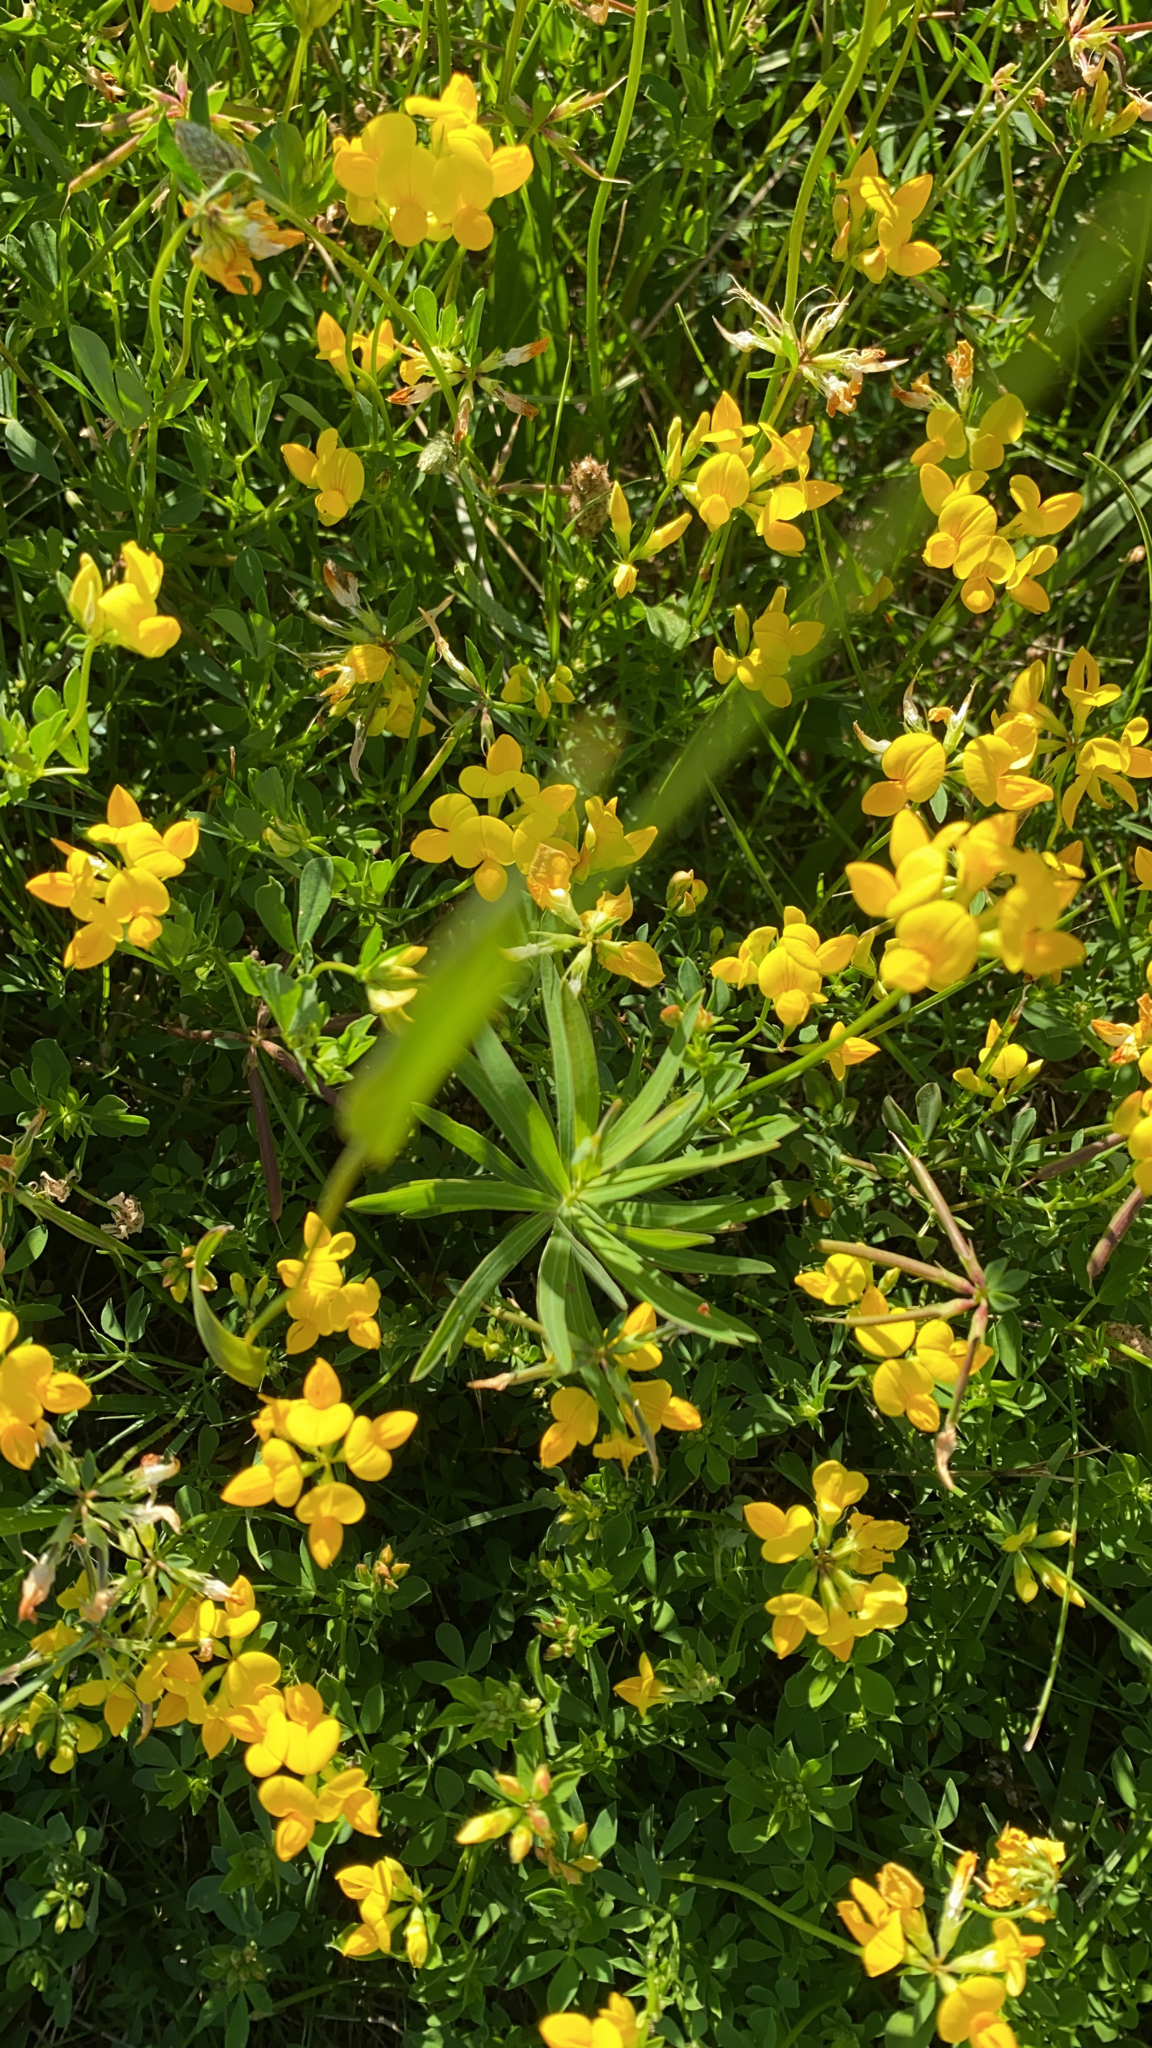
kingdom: Plantae
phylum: Tracheophyta
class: Magnoliopsida
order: Fabales
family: Fabaceae
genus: Lotus
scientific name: Lotus corniculatus
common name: Common bird's-foot-trefoil
